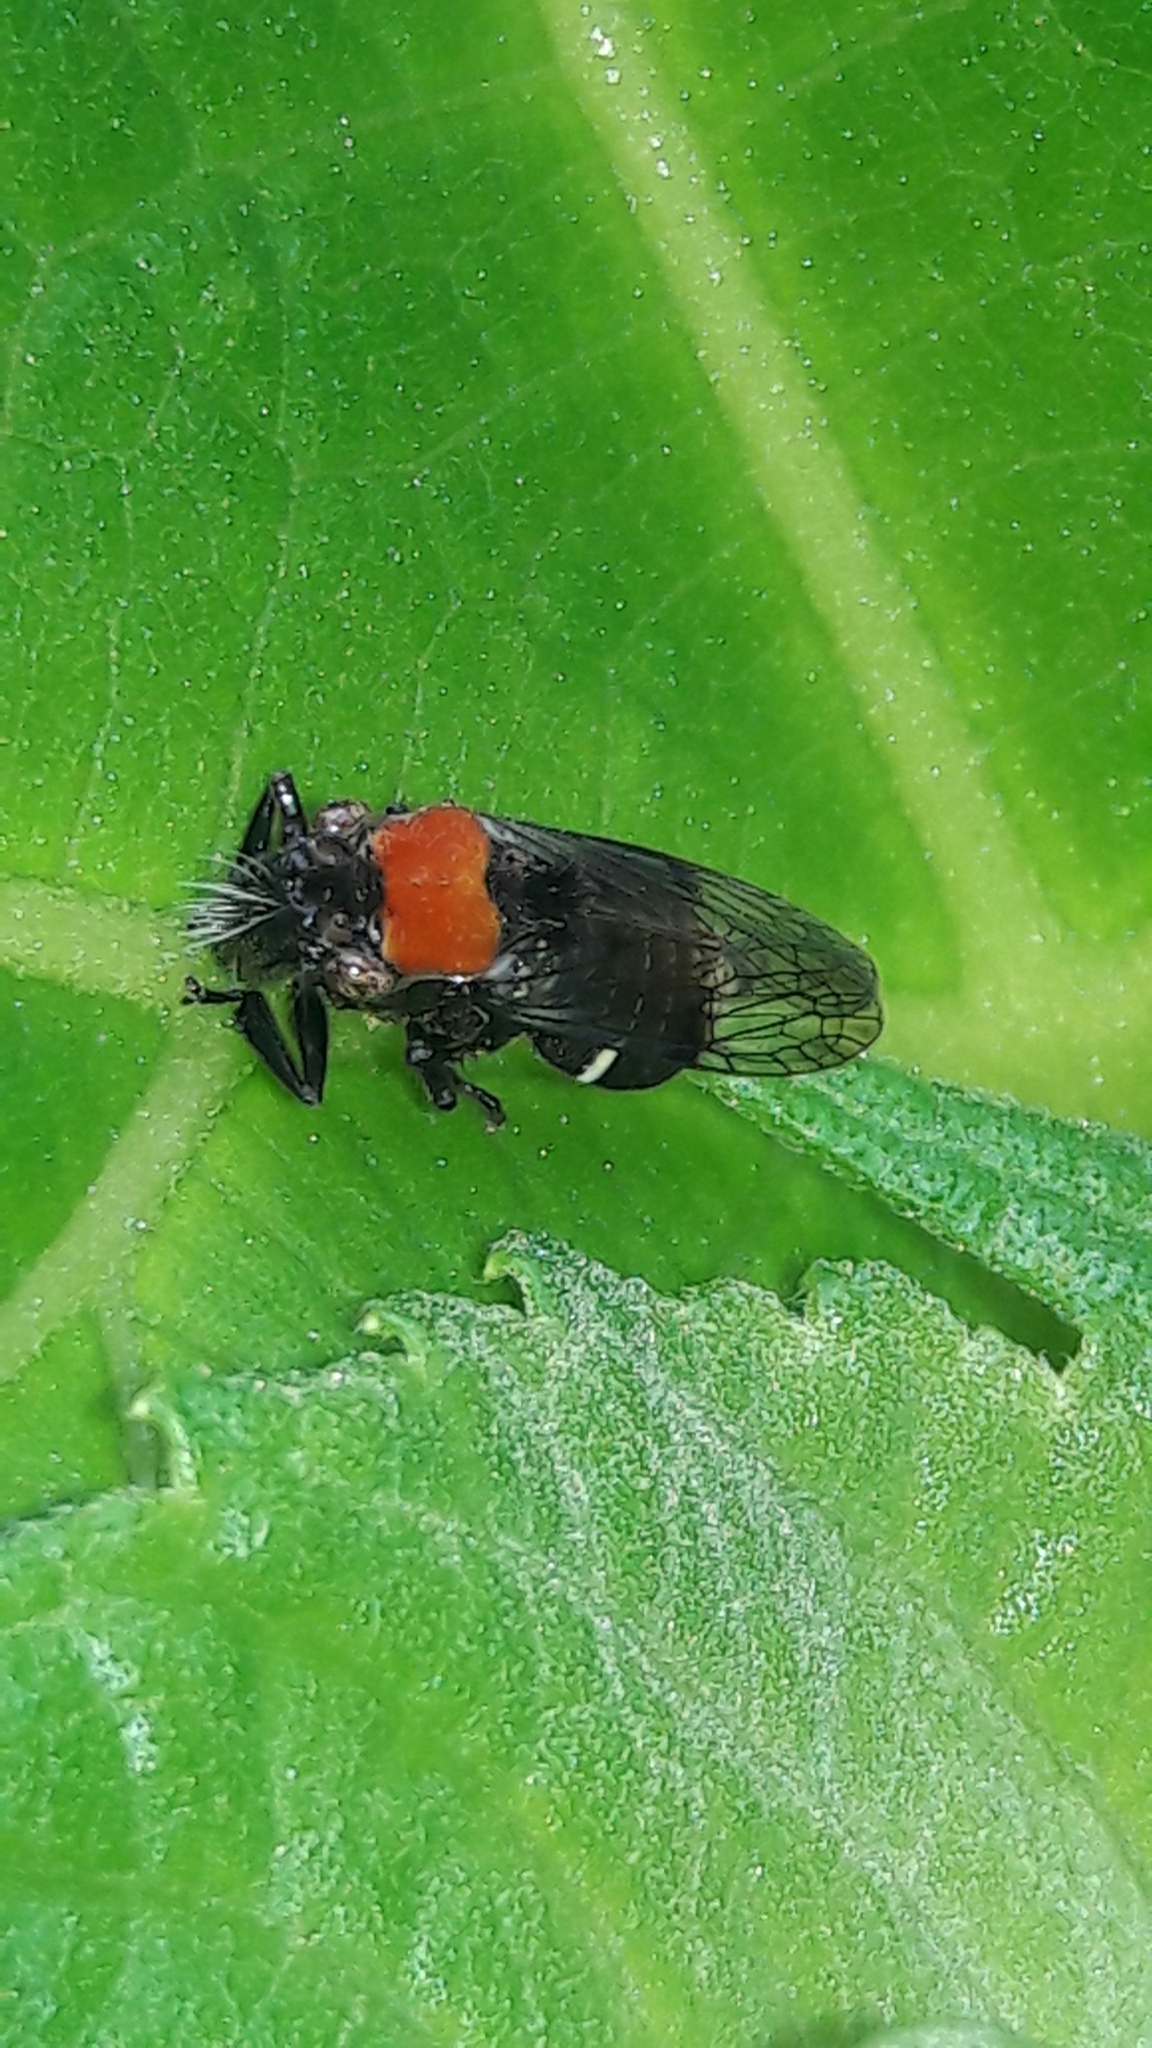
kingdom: Animalia
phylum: Arthropoda
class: Insecta
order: Hemiptera
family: Cicadellidae
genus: Teletusa
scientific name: Teletusa
